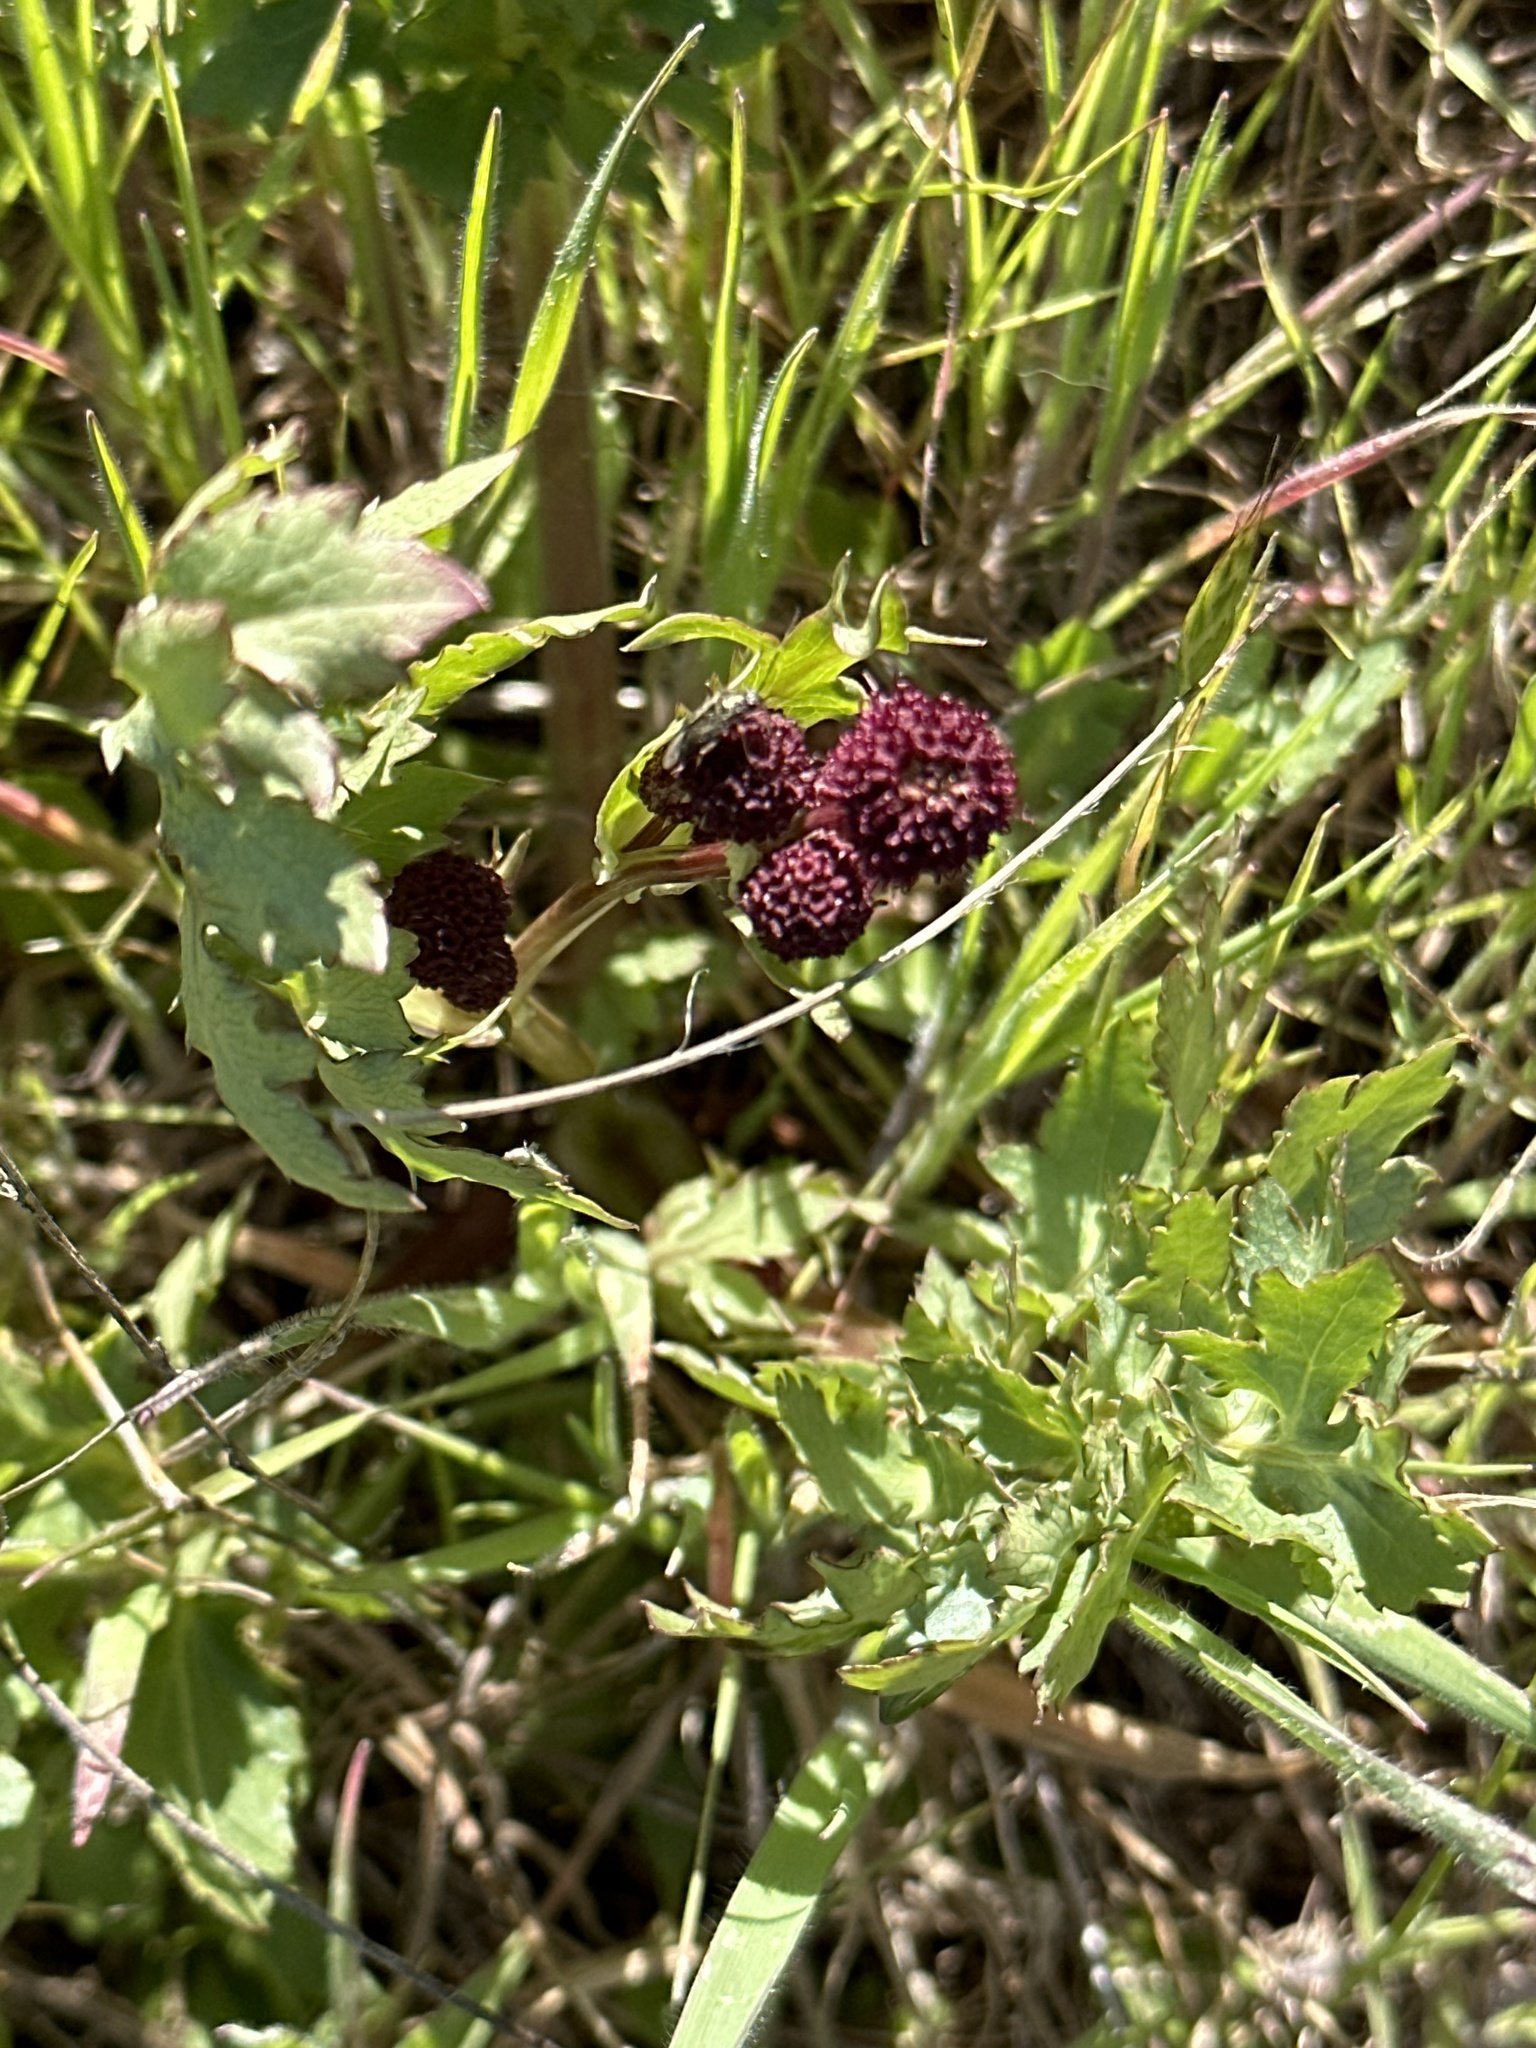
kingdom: Plantae
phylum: Tracheophyta
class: Magnoliopsida
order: Apiales
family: Apiaceae
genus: Sanicula
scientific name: Sanicula bipinnatifida
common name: Shoe-buttons
